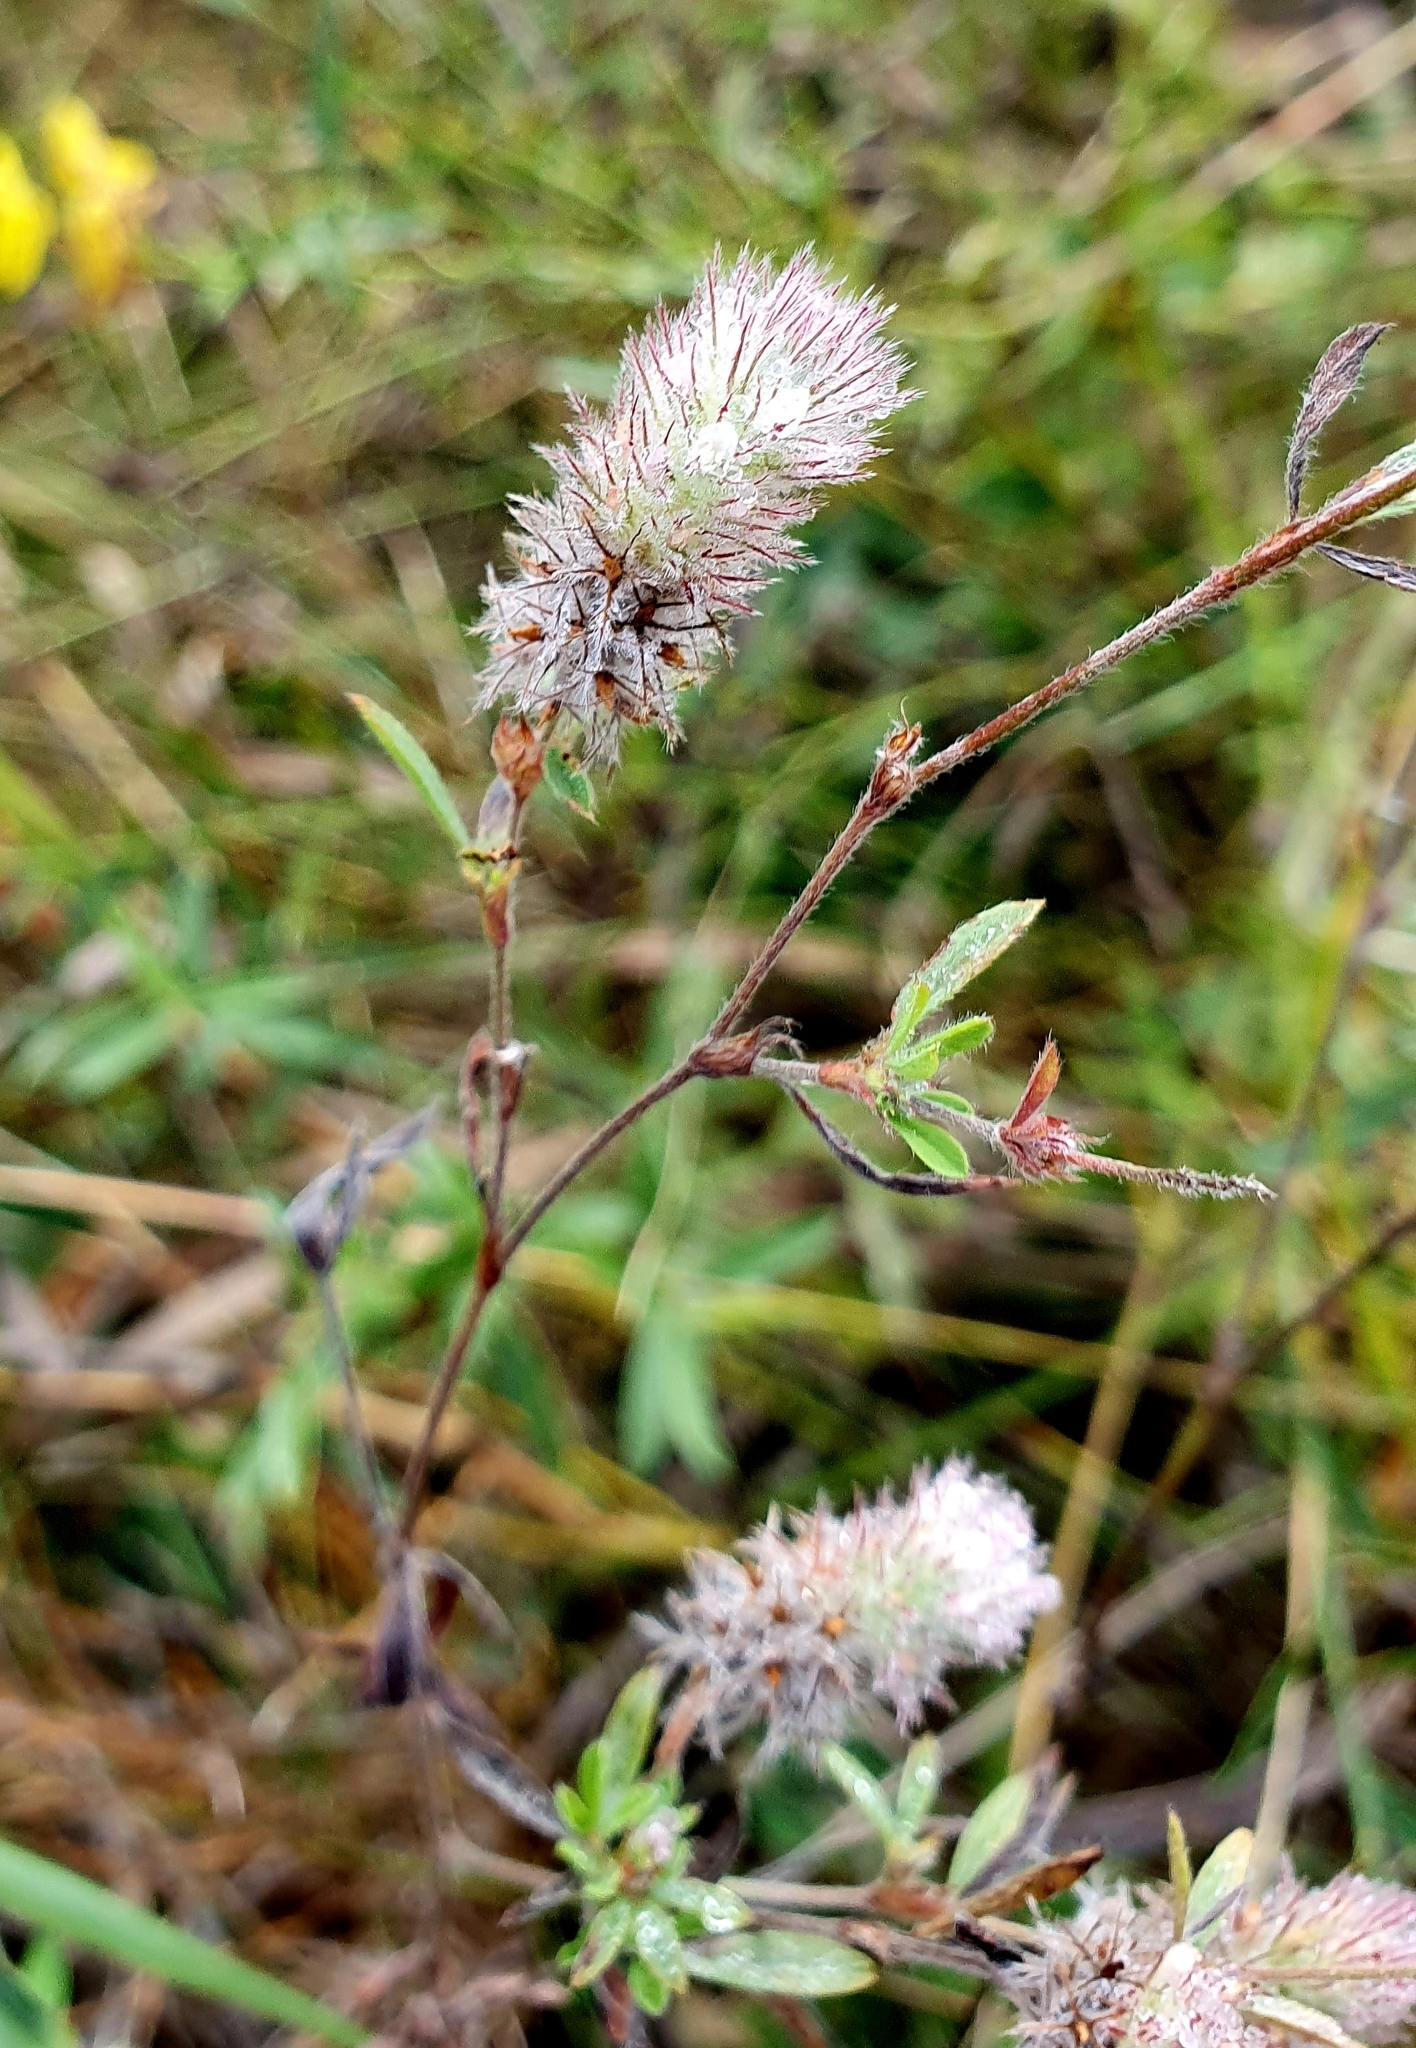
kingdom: Plantae
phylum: Tracheophyta
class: Magnoliopsida
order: Fabales
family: Fabaceae
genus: Trifolium
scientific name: Trifolium arvense
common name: Hare's-foot clover
